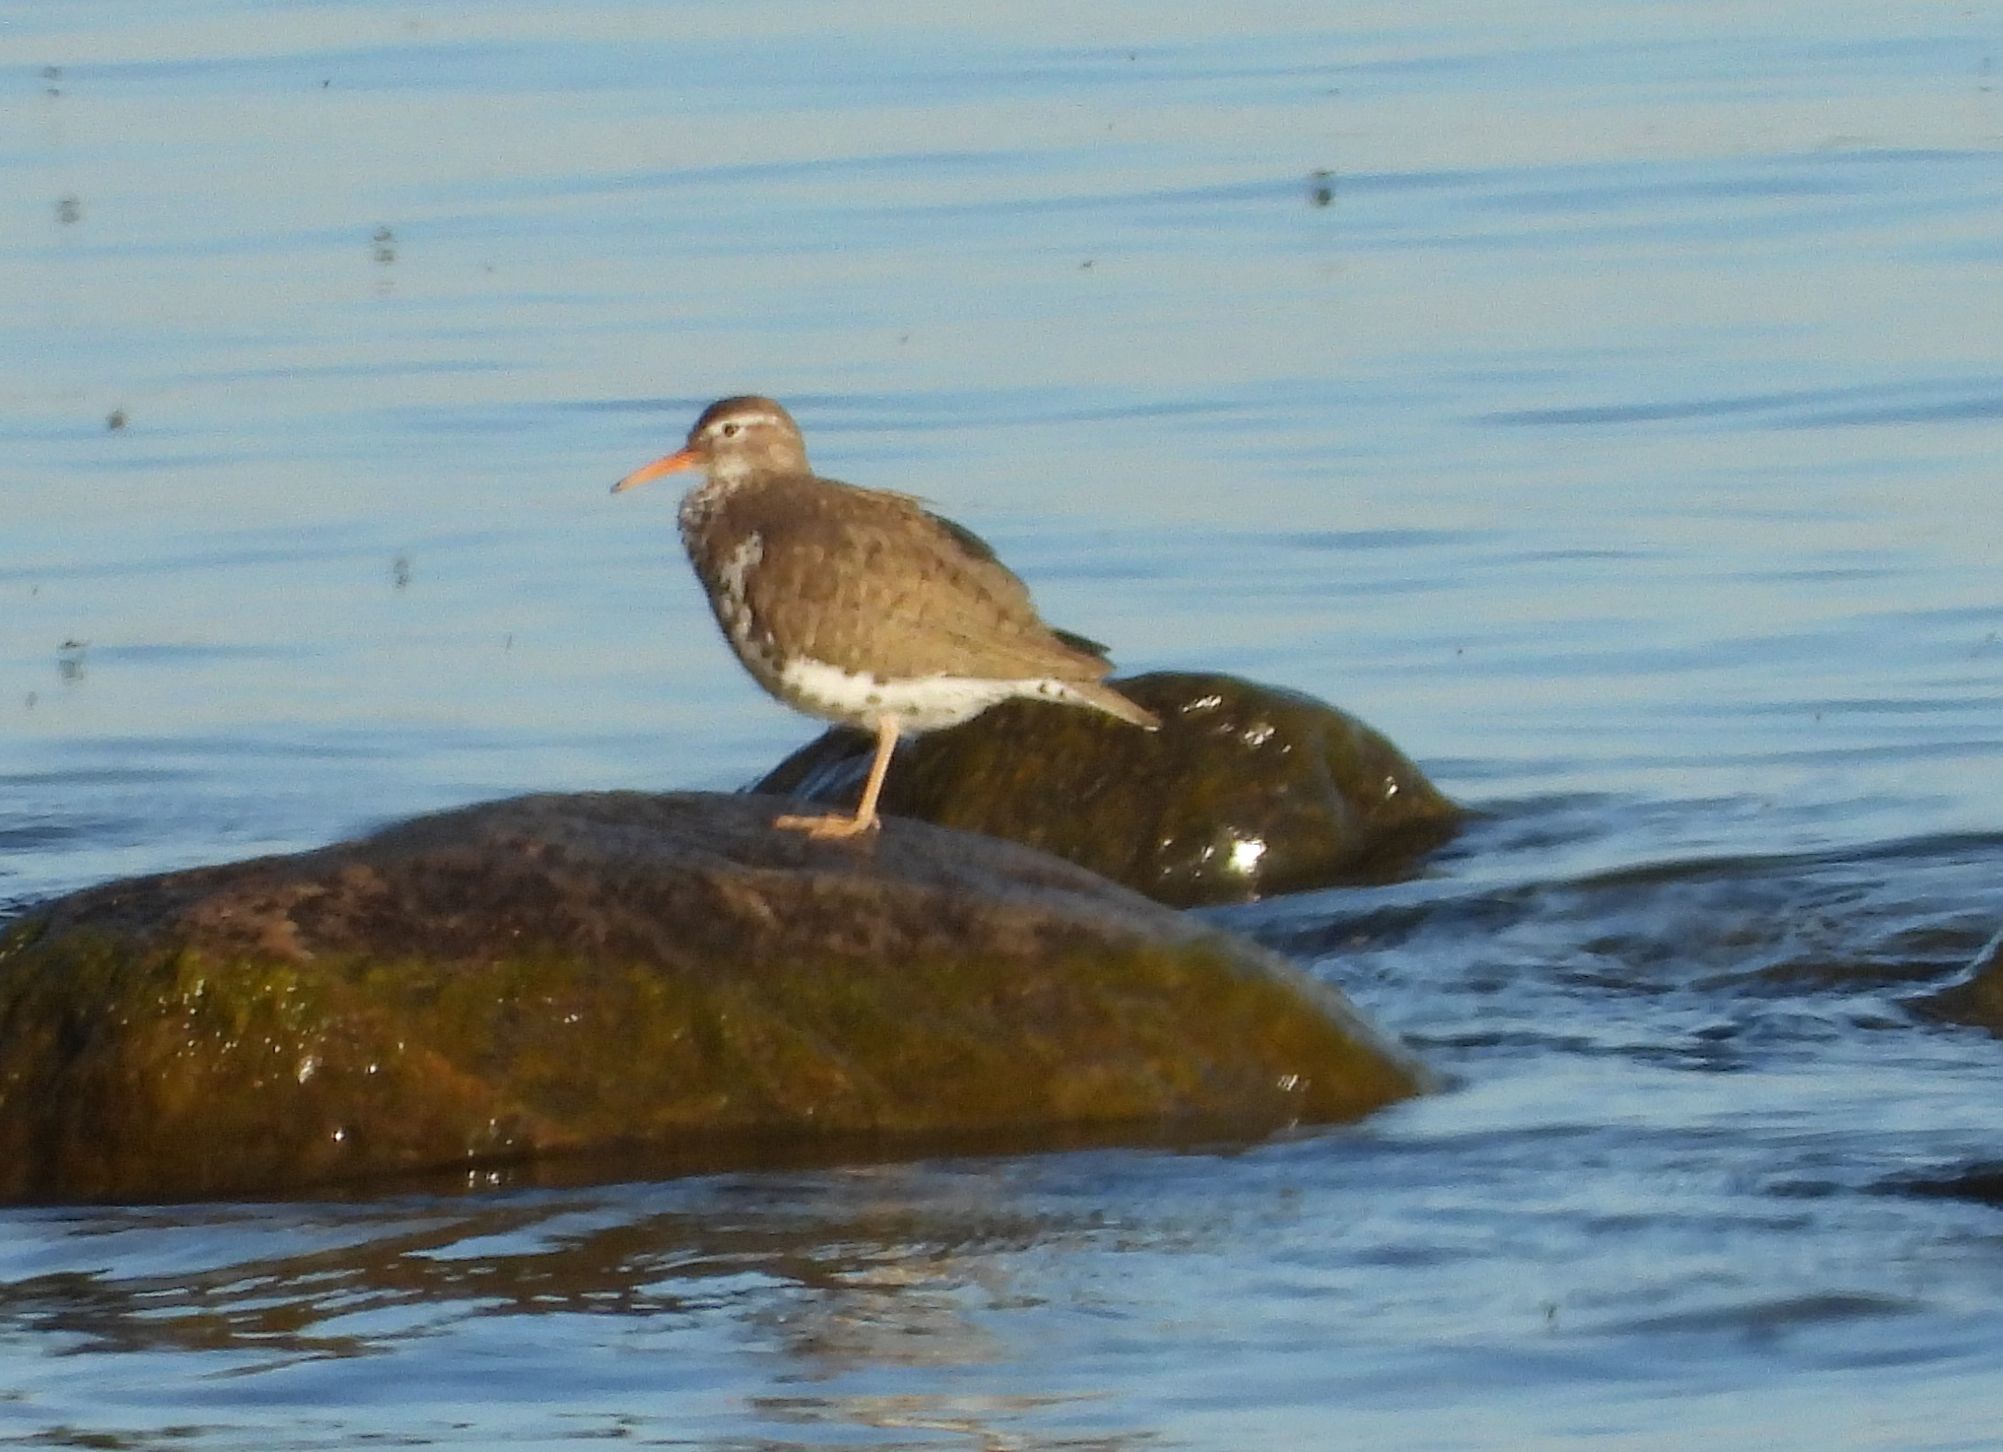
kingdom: Animalia
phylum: Chordata
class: Aves
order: Charadriiformes
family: Scolopacidae
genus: Actitis
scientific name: Actitis macularius
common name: Spotted sandpiper
